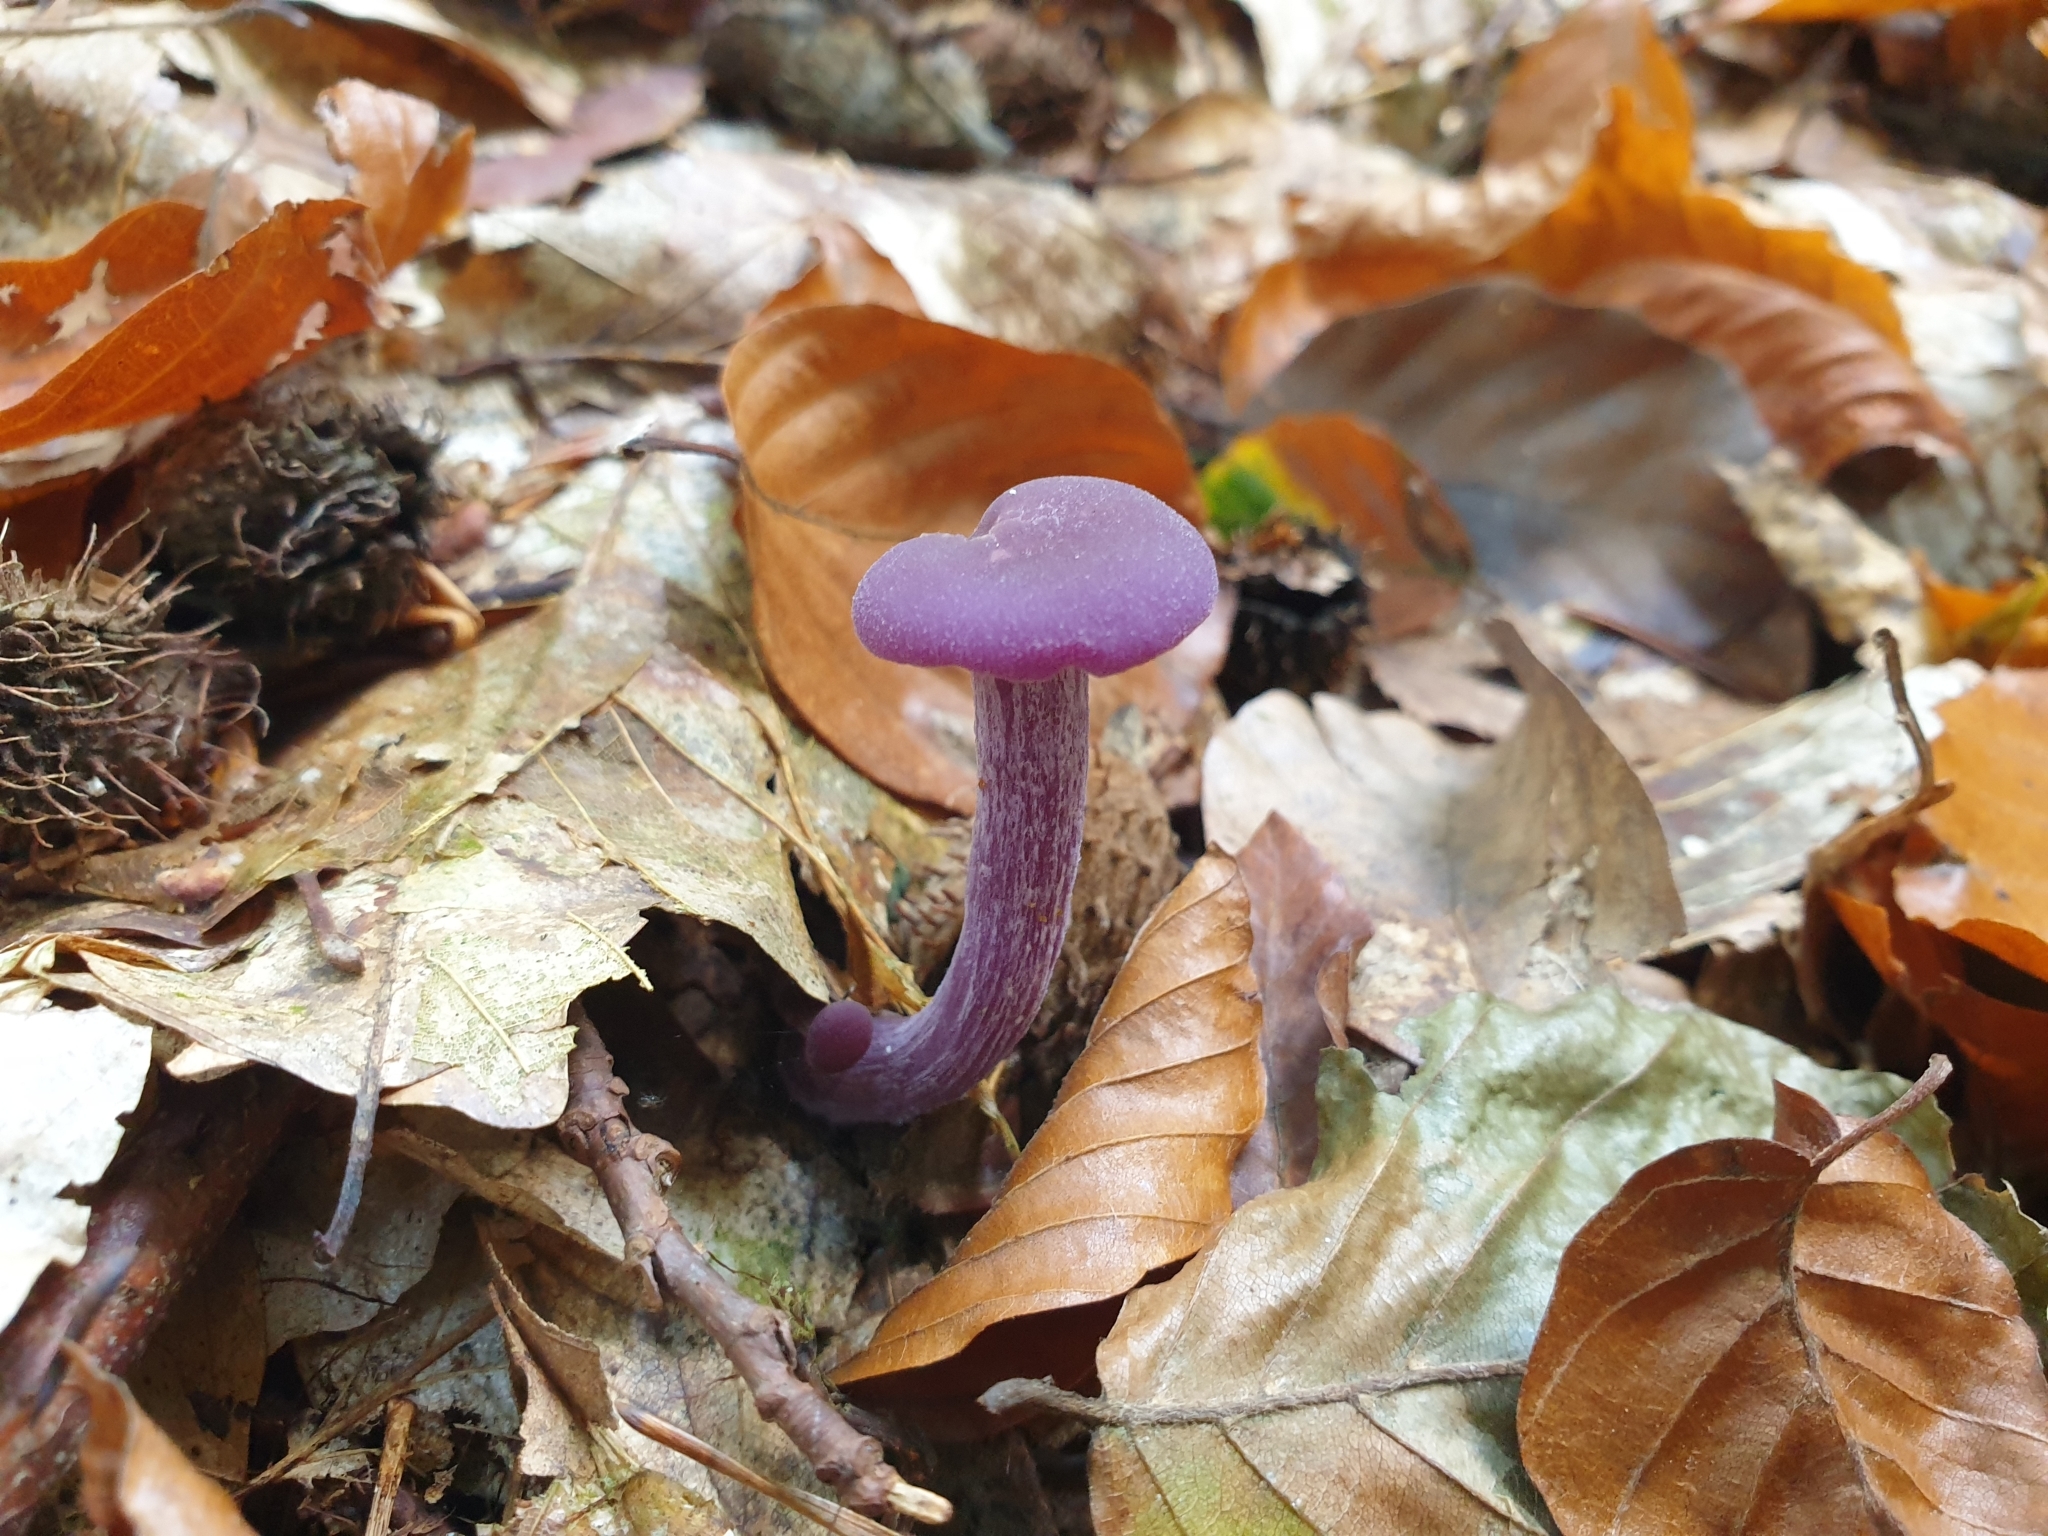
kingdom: Fungi
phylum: Basidiomycota
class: Agaricomycetes
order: Agaricales
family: Hydnangiaceae
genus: Laccaria
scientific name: Laccaria amethystina
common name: Amethyst deceiver
